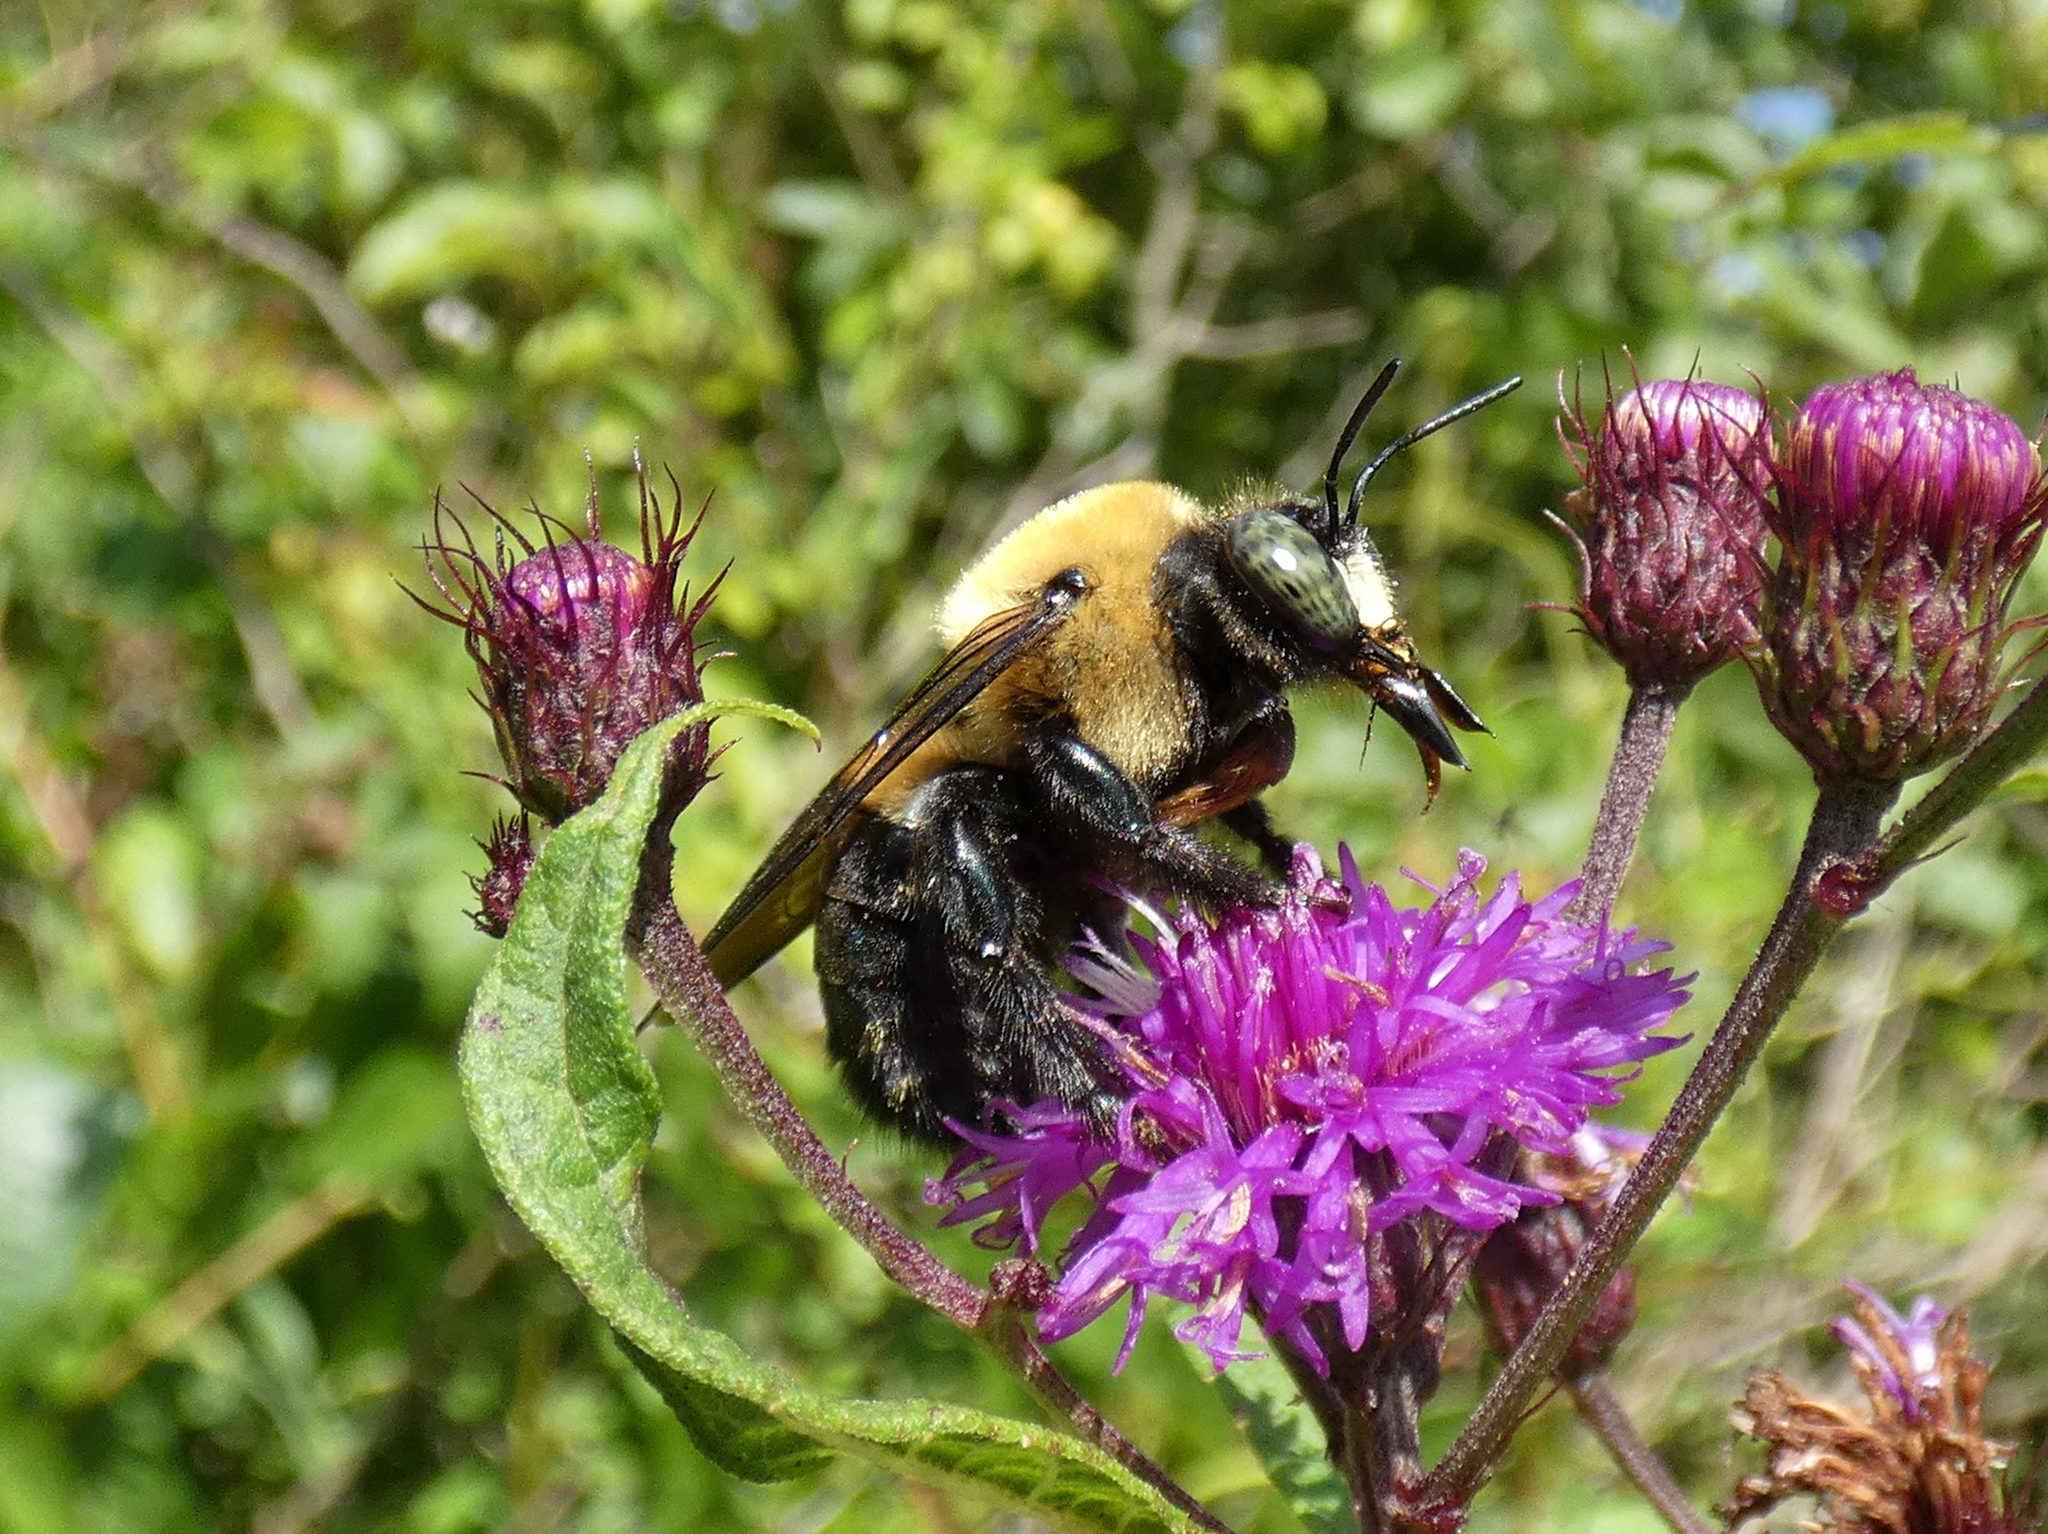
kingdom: Animalia
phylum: Arthropoda
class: Insecta
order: Hymenoptera
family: Apidae
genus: Xylocopa
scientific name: Xylocopa virginica
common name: Carpenter bee
